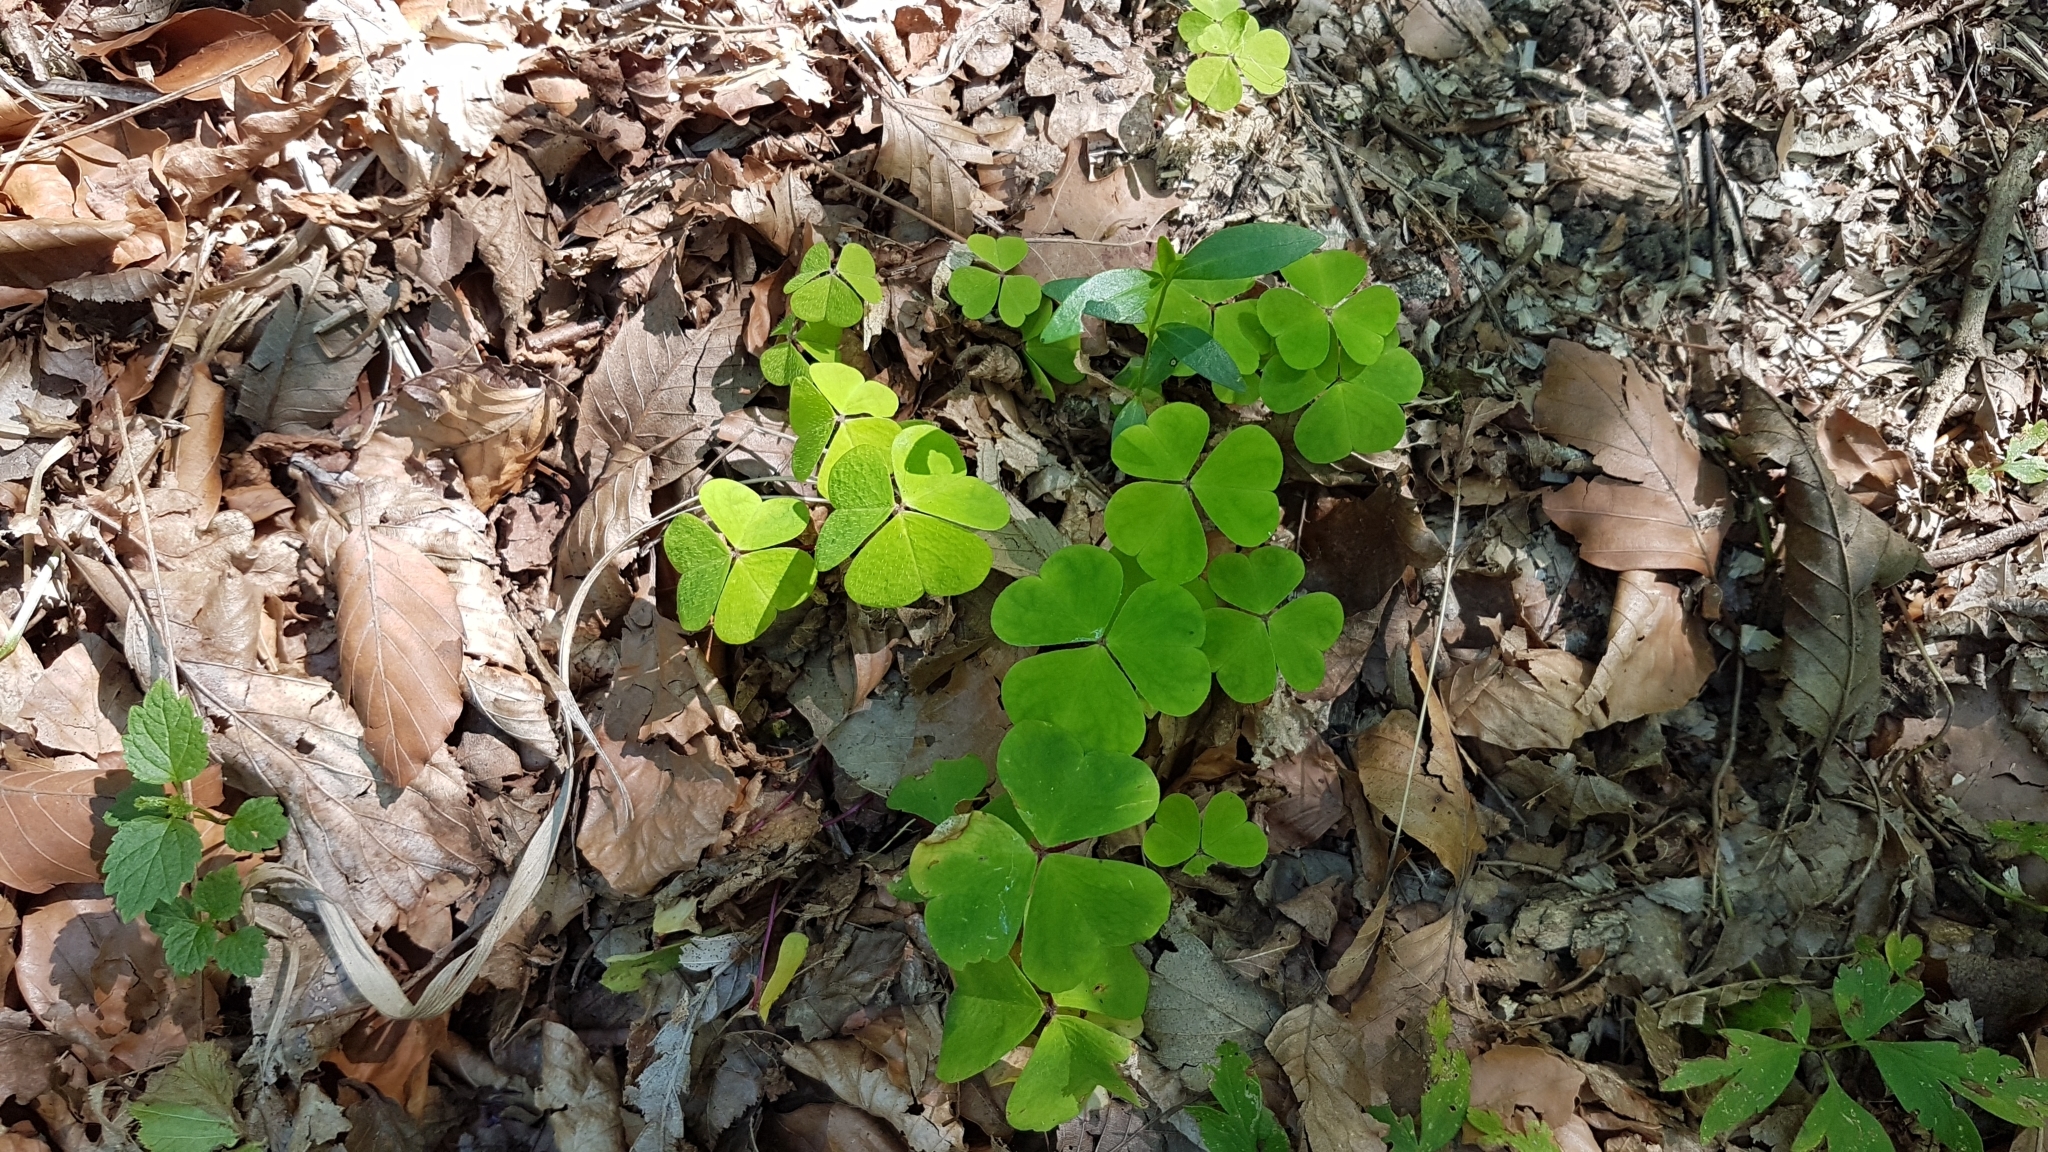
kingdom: Plantae
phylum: Tracheophyta
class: Magnoliopsida
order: Oxalidales
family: Oxalidaceae
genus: Oxalis
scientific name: Oxalis corniculata
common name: Procumbent yellow-sorrel
